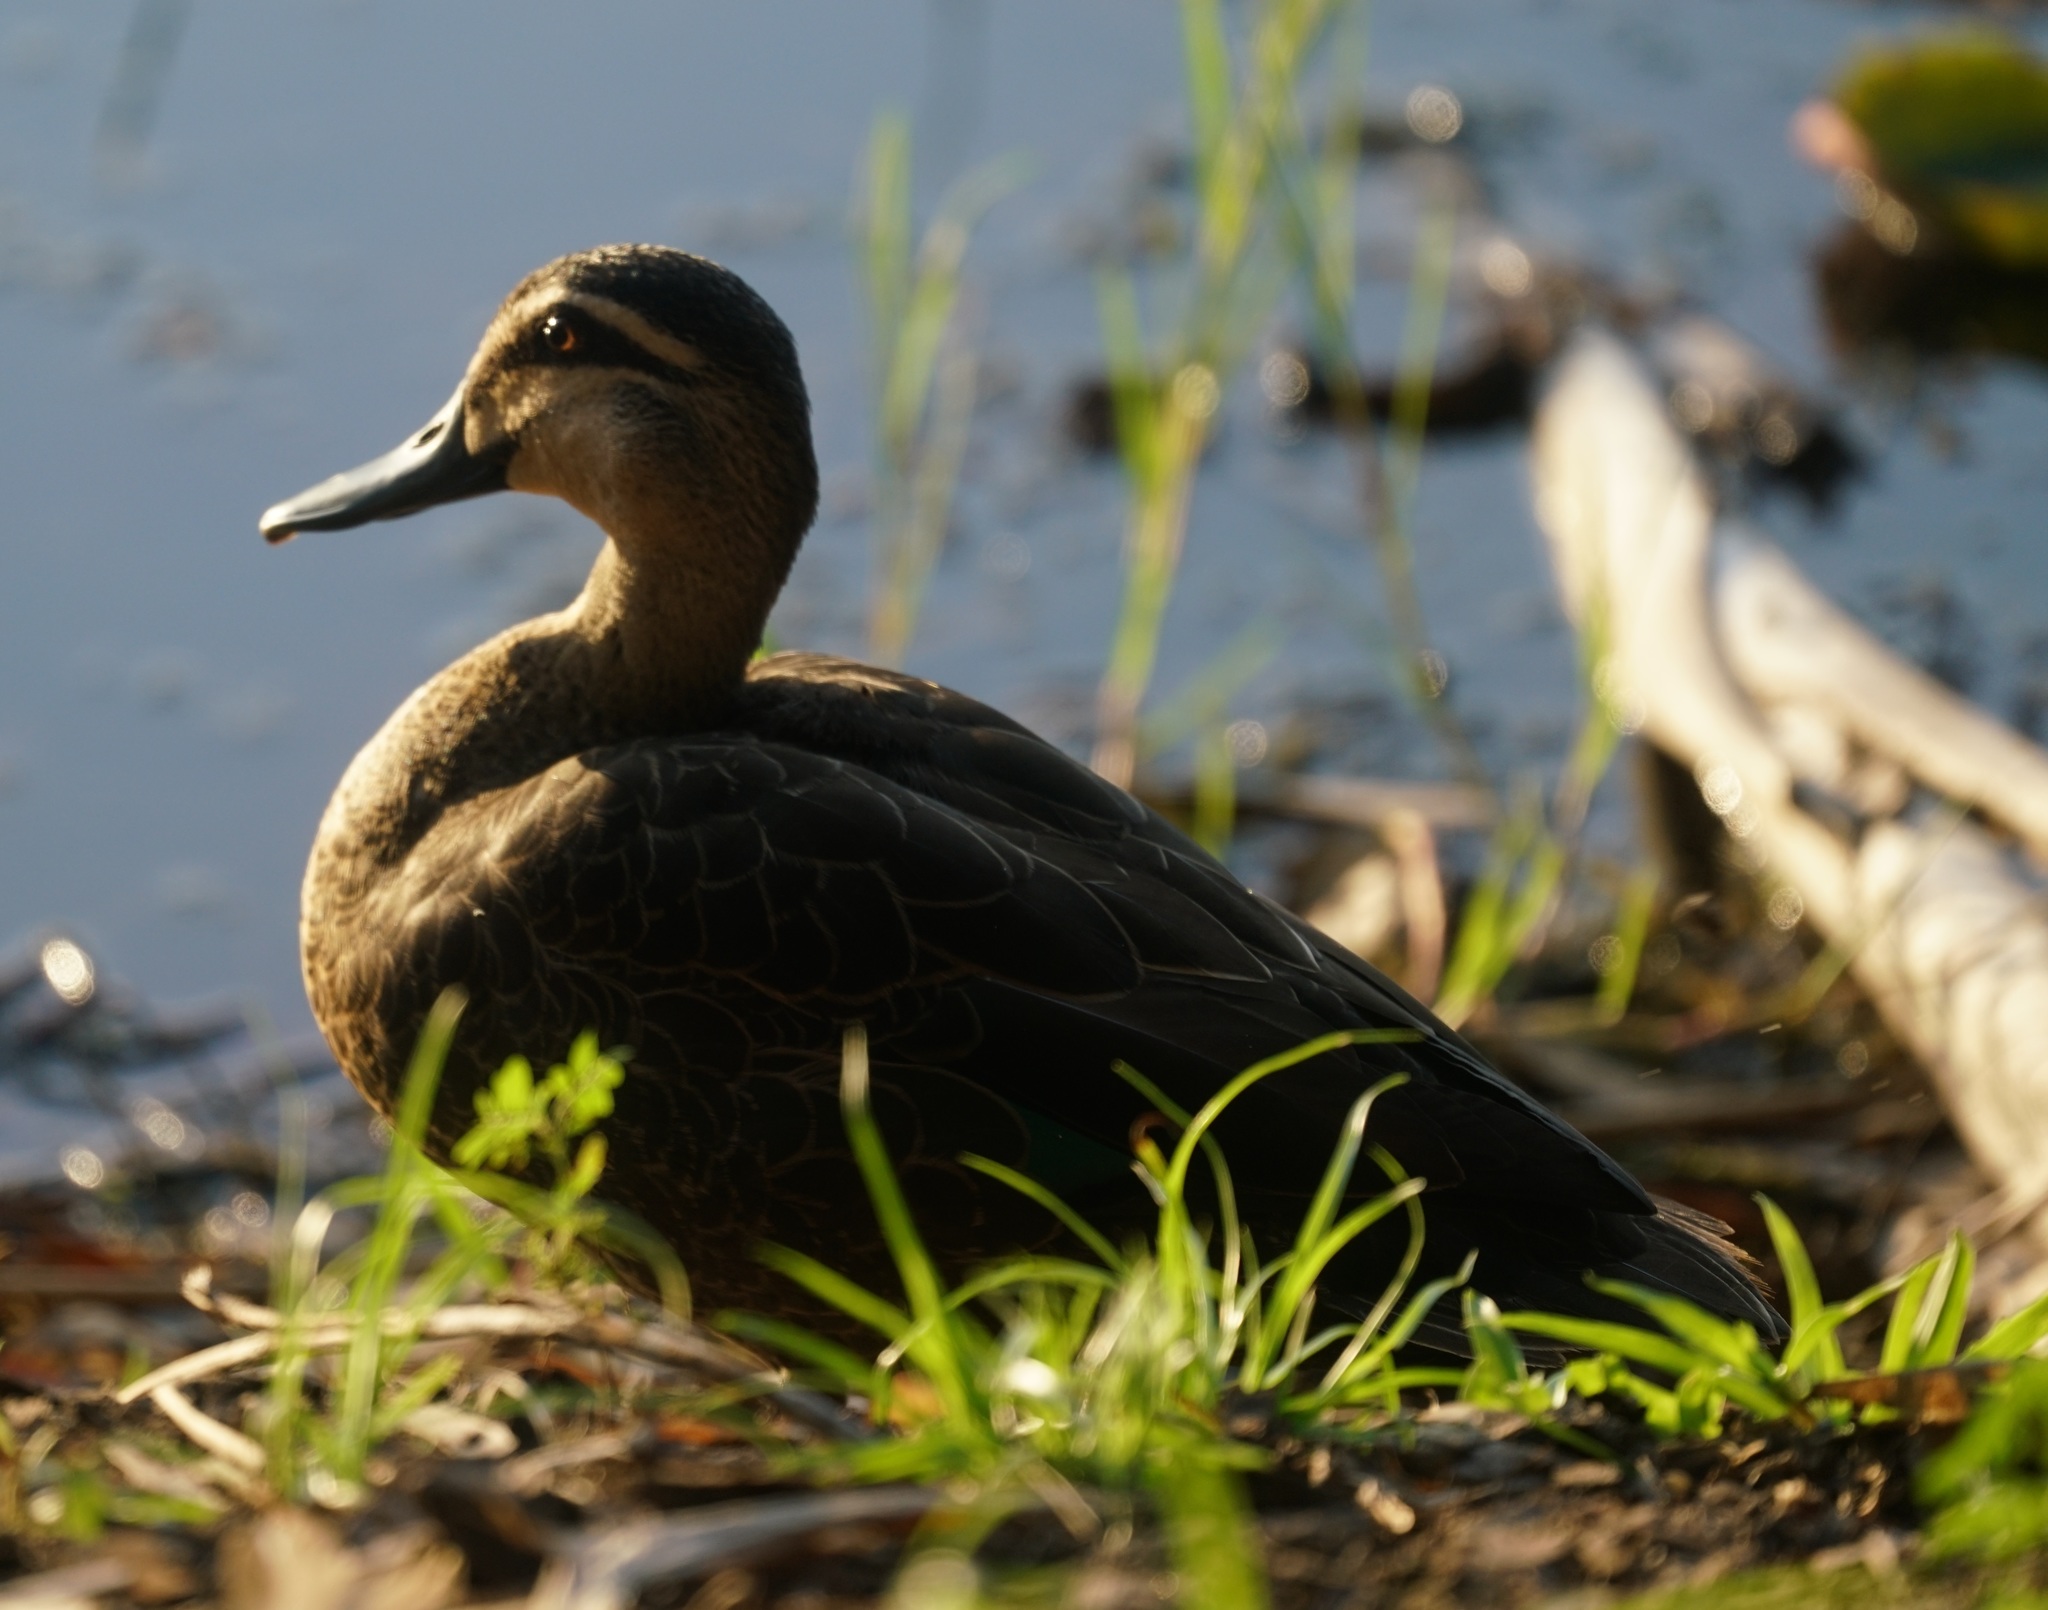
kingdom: Animalia
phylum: Chordata
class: Aves
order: Anseriformes
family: Anatidae
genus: Anas
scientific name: Anas superciliosa
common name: Pacific black duck
